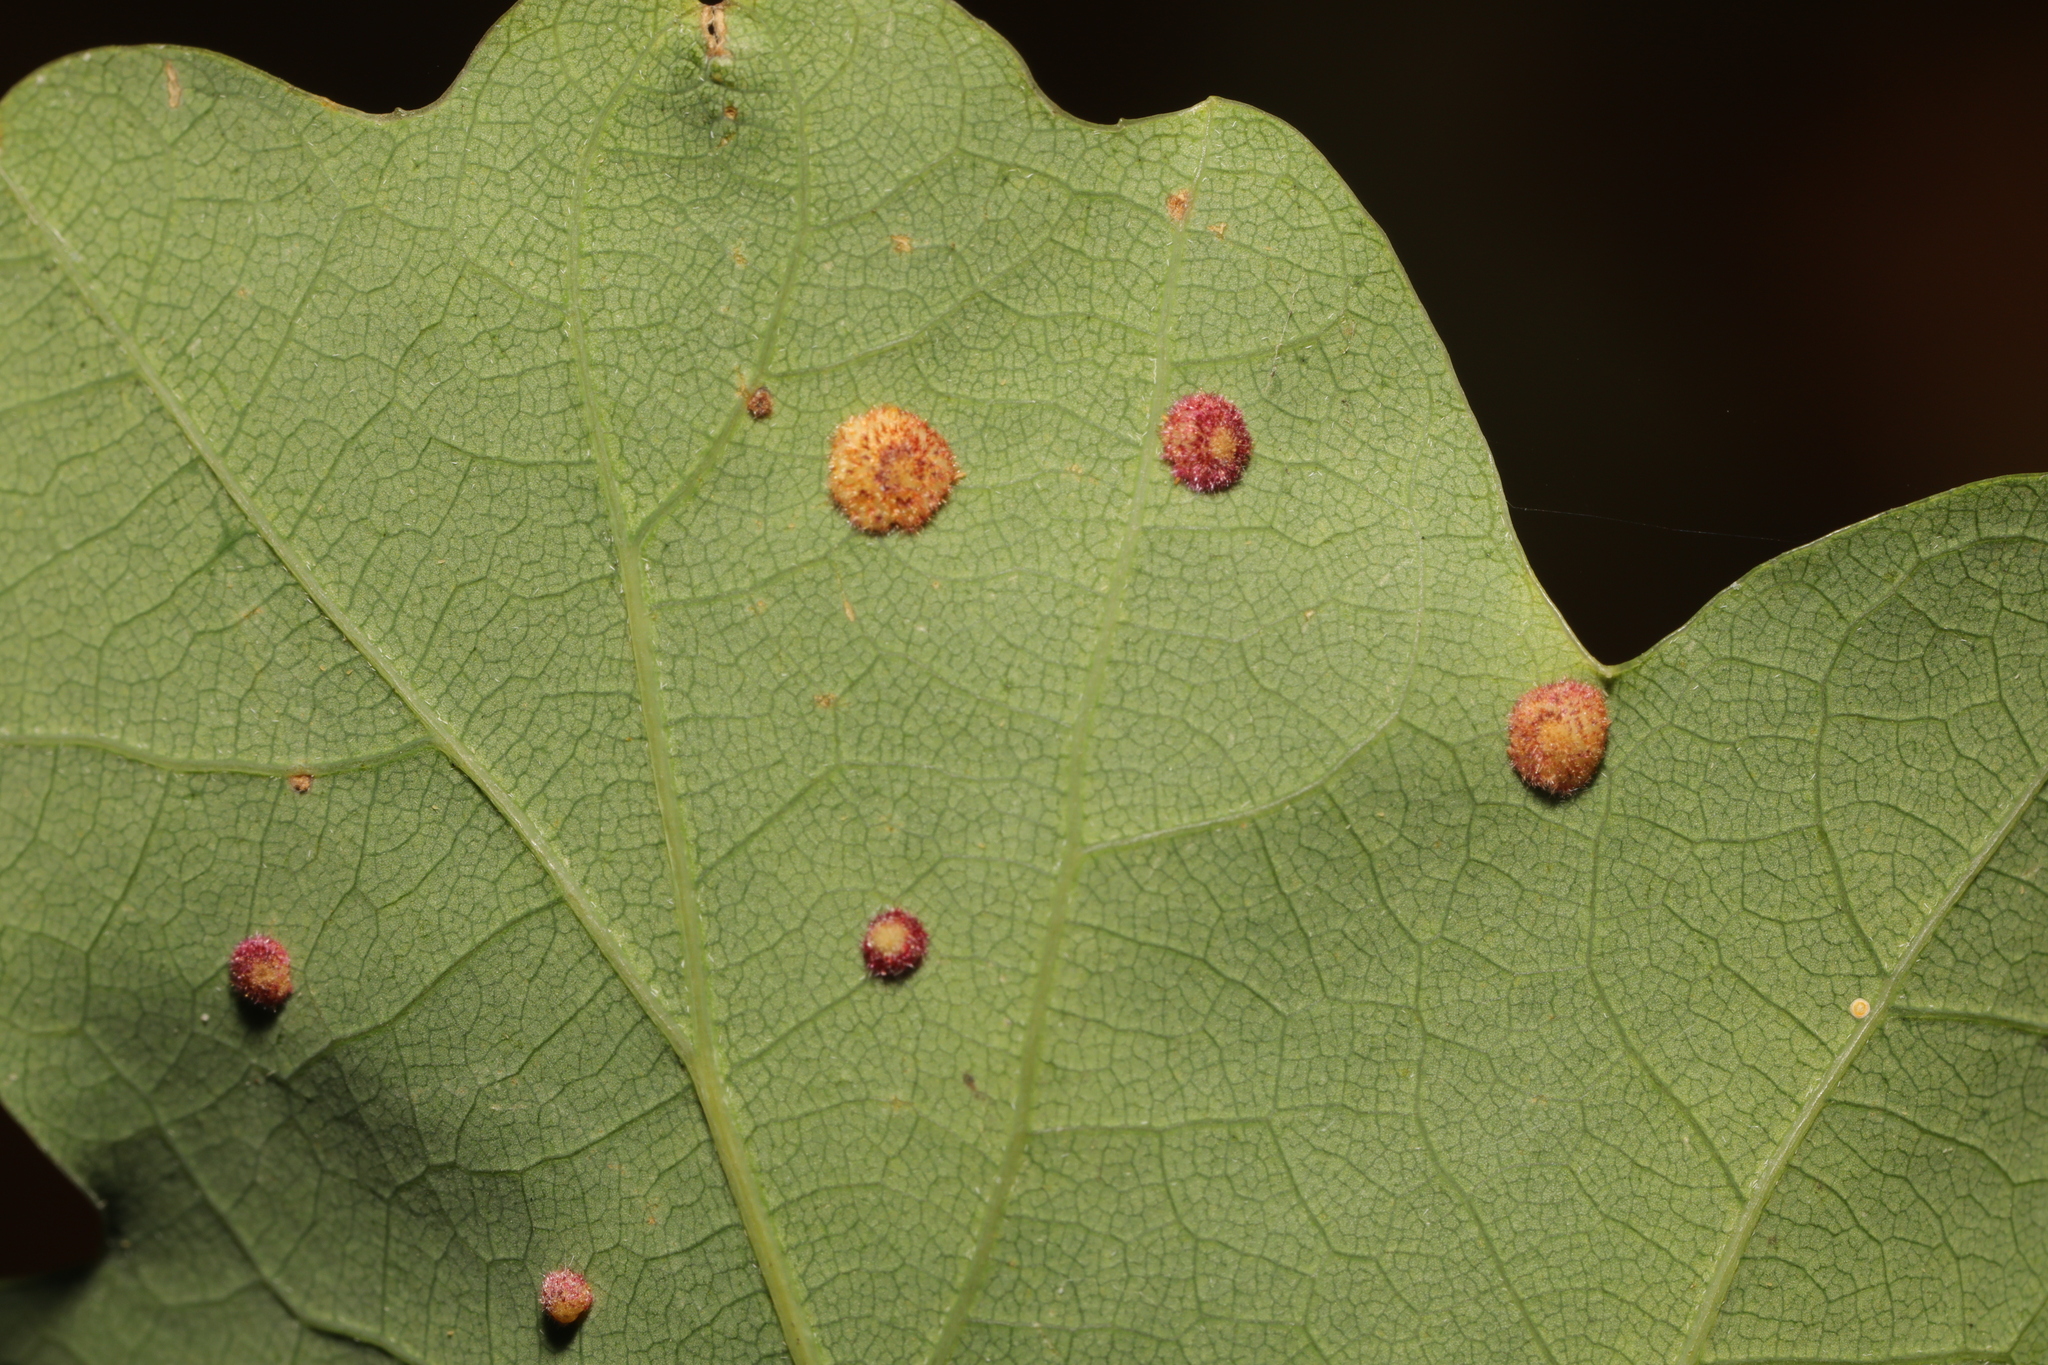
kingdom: Animalia
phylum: Arthropoda
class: Insecta
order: Hymenoptera
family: Cynipidae
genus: Neuroterus
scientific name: Neuroterus quercusbaccarum
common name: Common spangle gall
